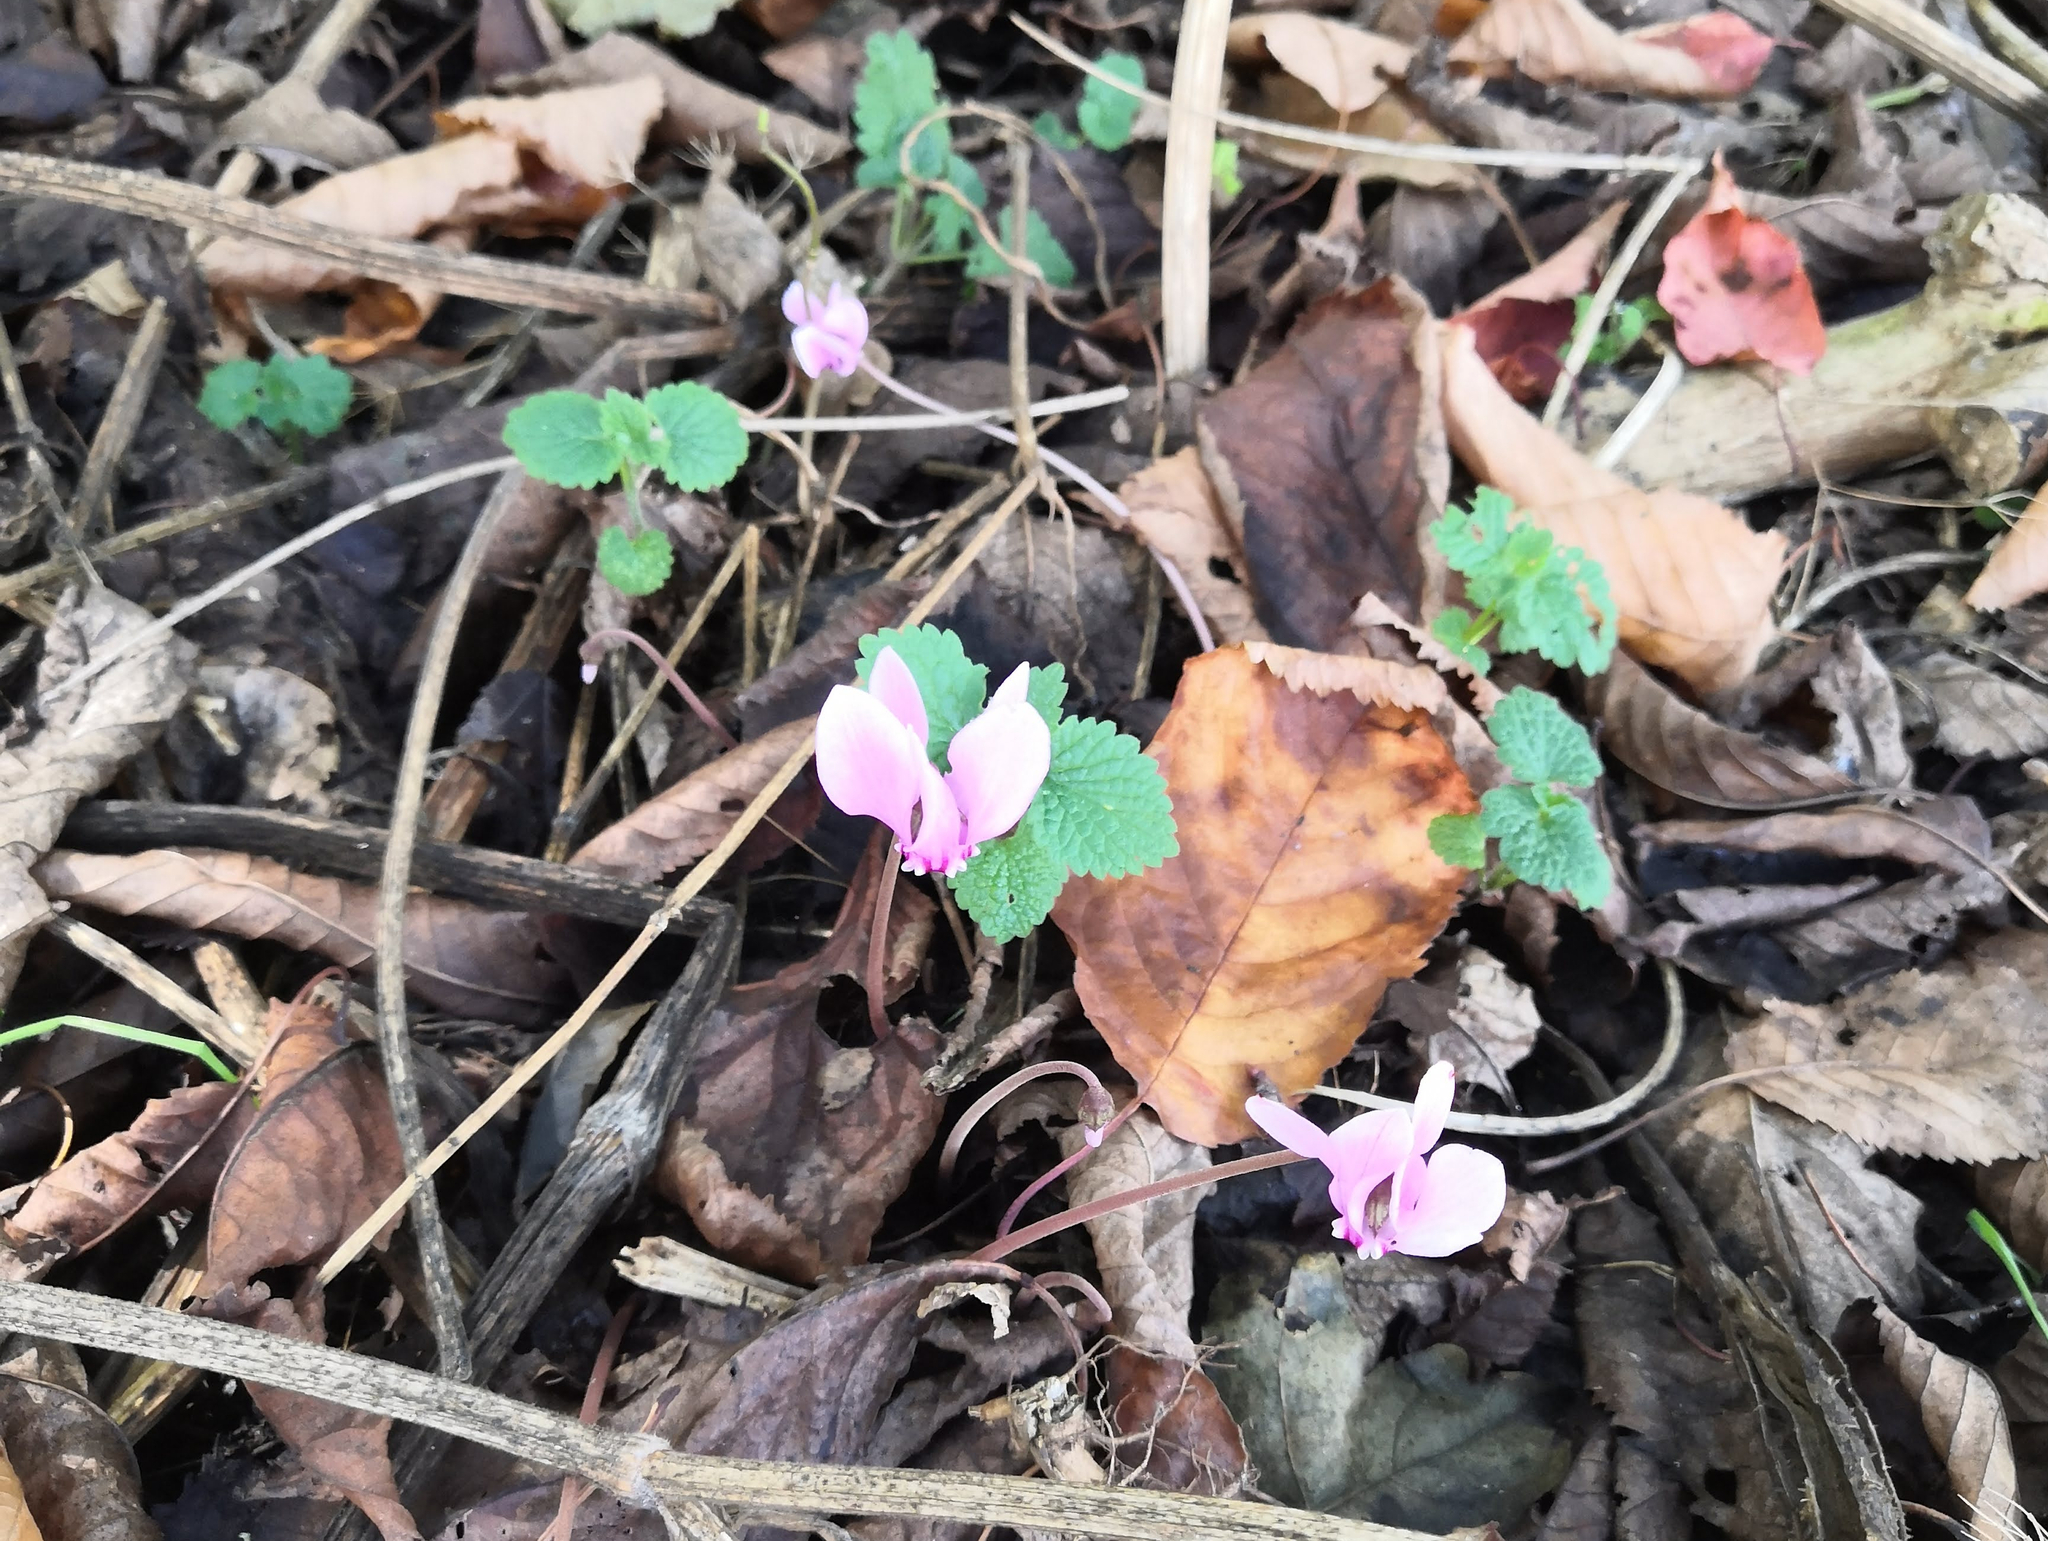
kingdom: Plantae
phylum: Tracheophyta
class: Magnoliopsida
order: Ericales
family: Primulaceae
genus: Cyclamen
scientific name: Cyclamen hederifolium
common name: Sowbread
